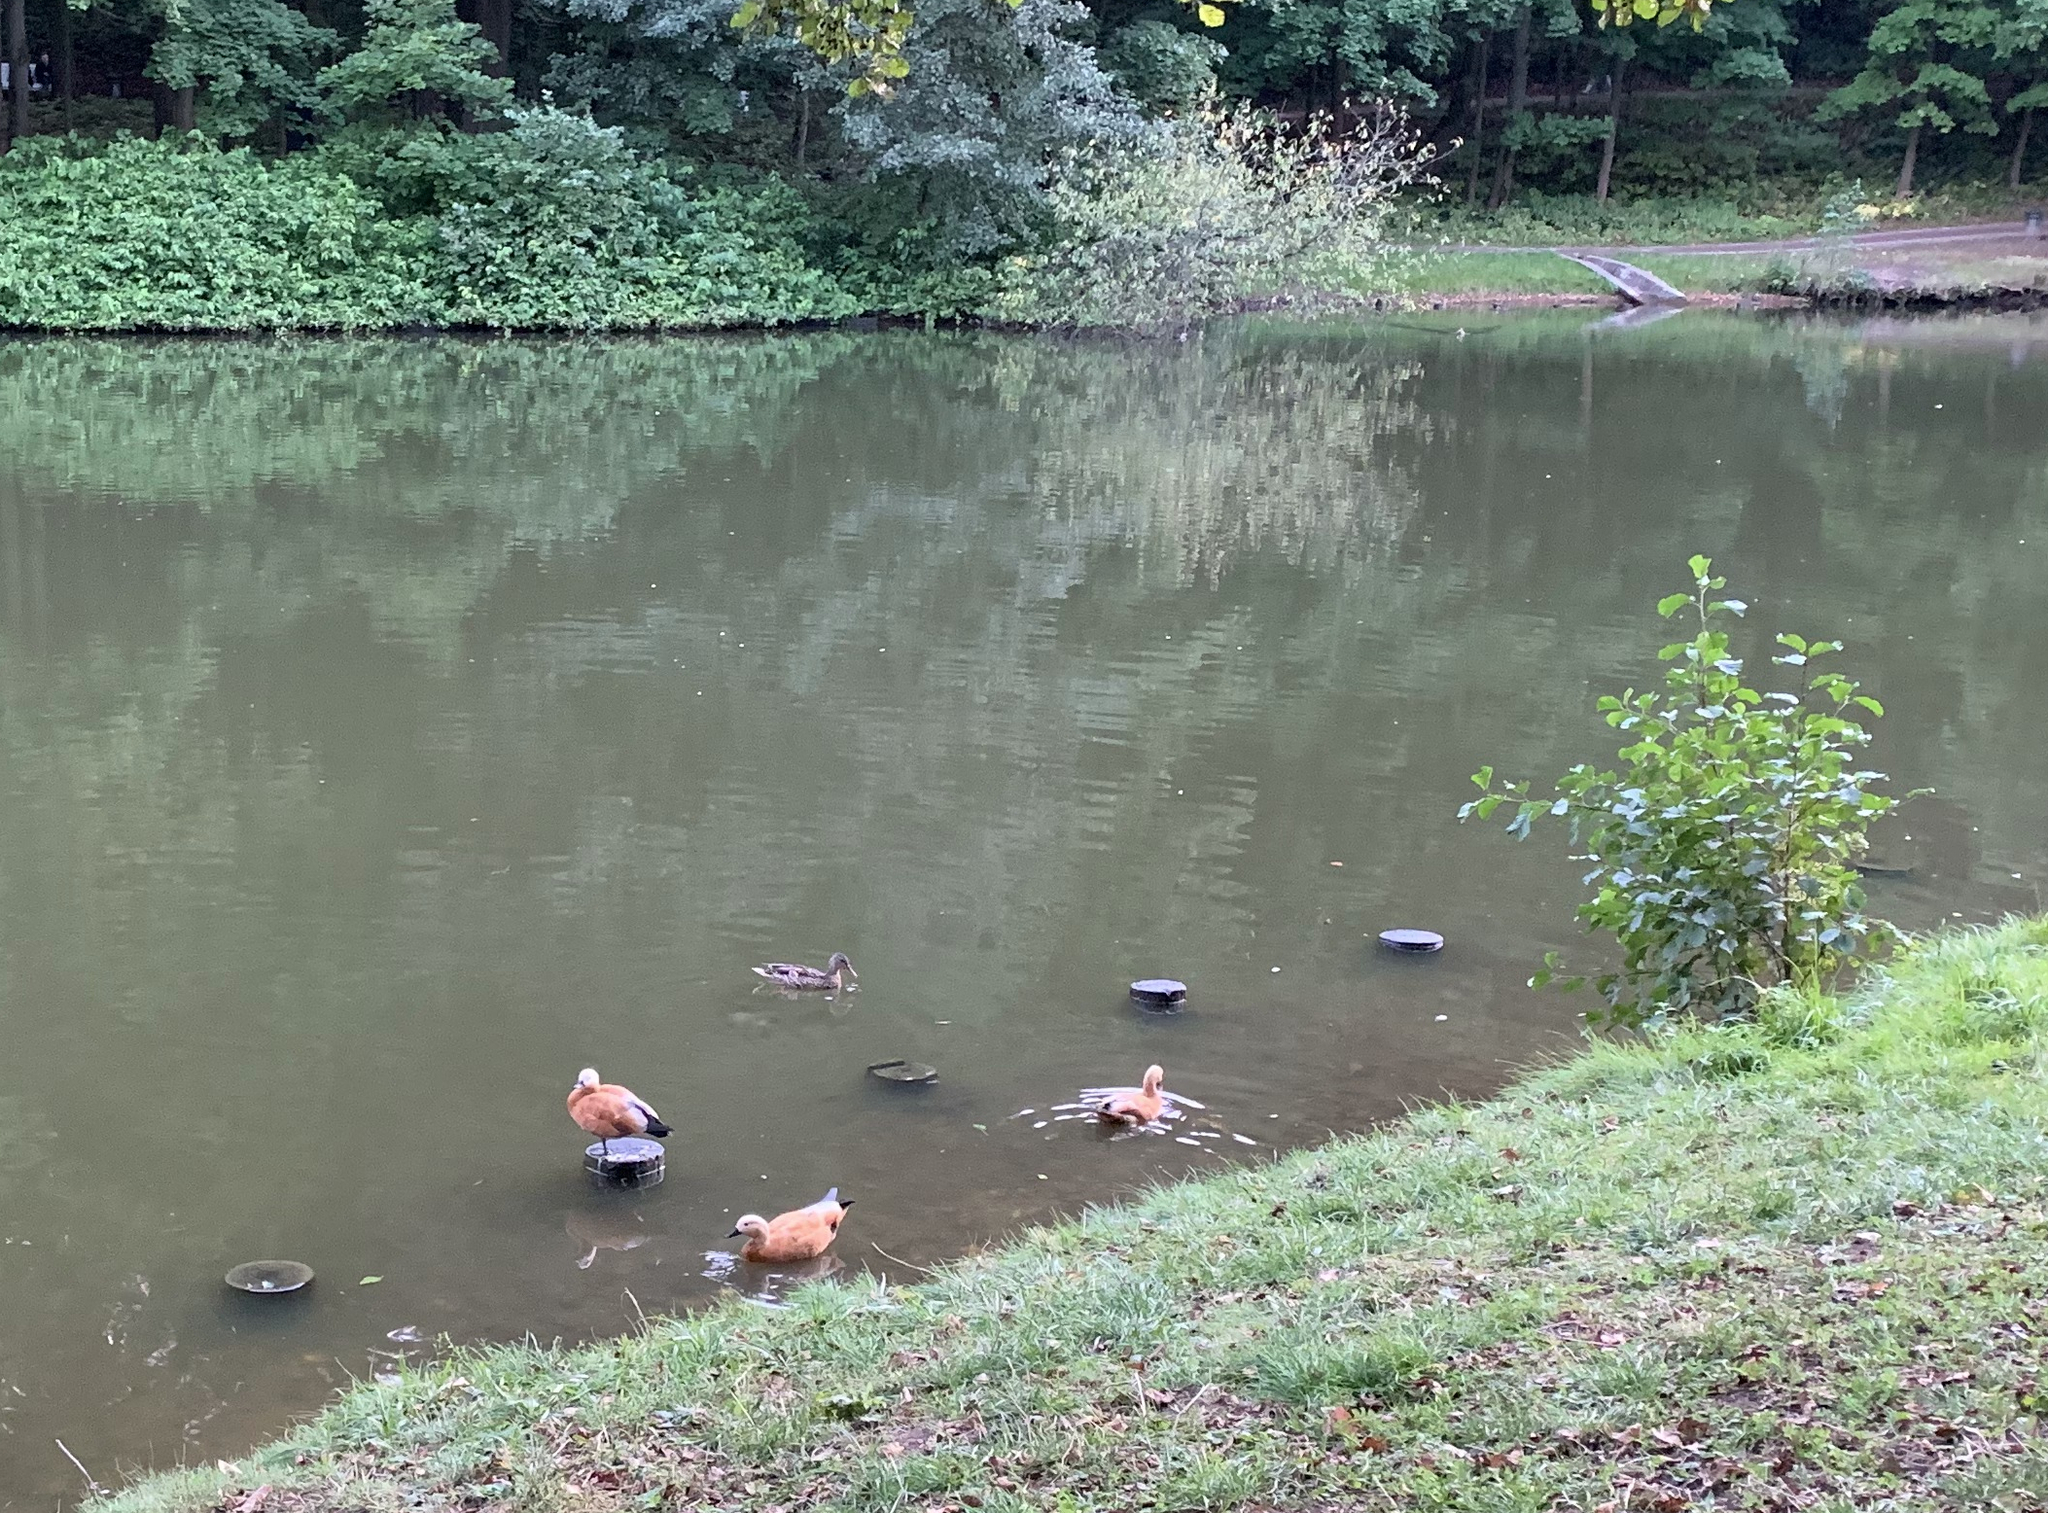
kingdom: Animalia
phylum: Chordata
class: Aves
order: Anseriformes
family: Anatidae
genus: Tadorna
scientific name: Tadorna ferruginea
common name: Ruddy shelduck
